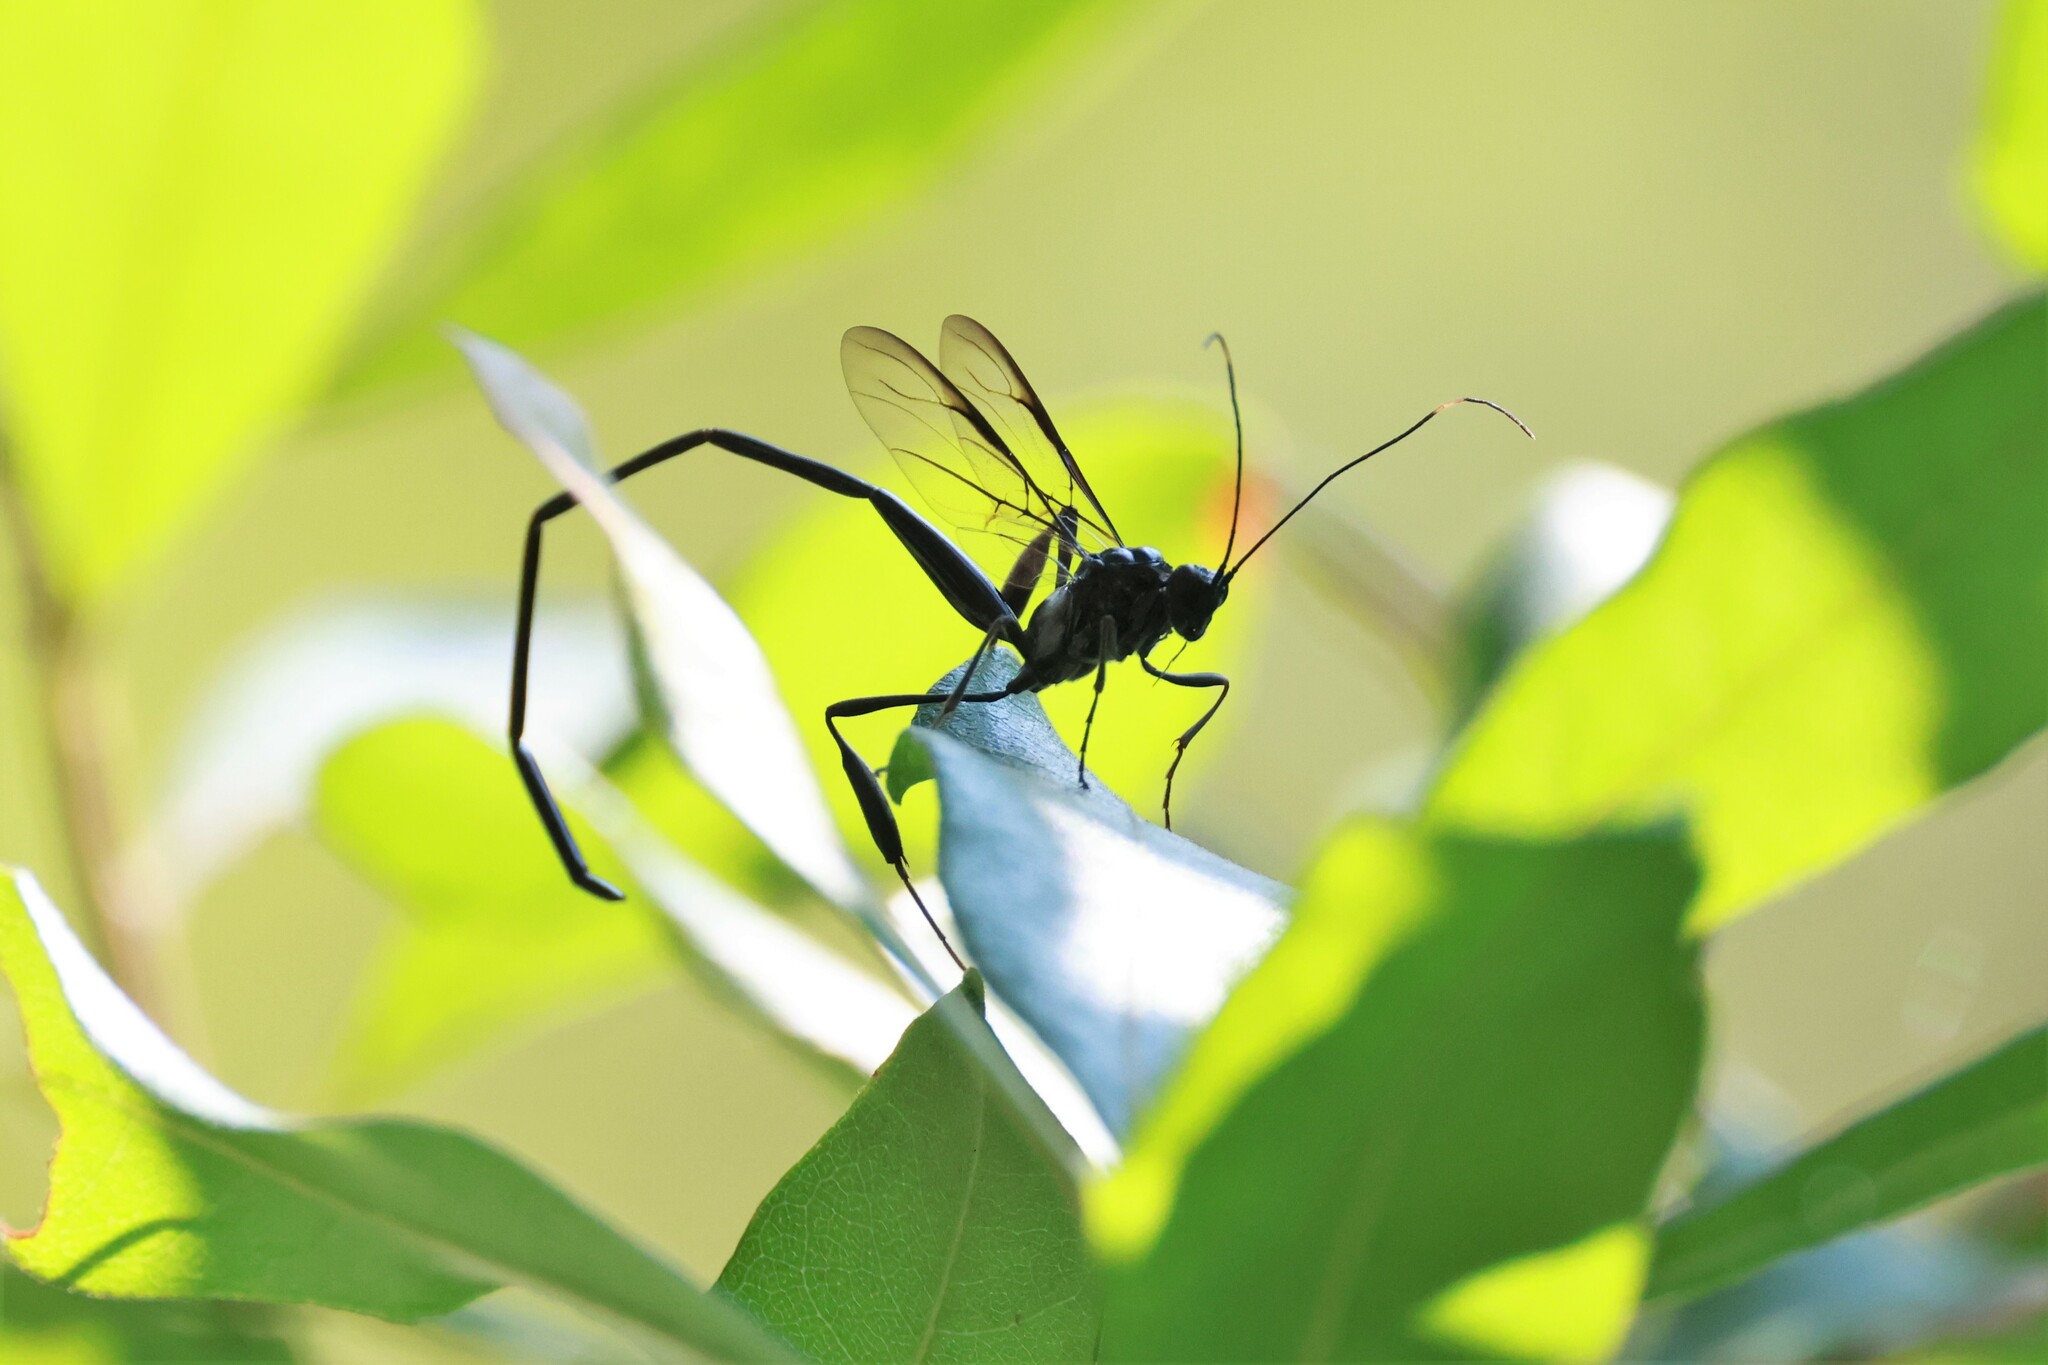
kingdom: Animalia
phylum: Arthropoda
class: Insecta
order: Hymenoptera
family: Pelecinidae
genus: Pelecinus
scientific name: Pelecinus polyturator
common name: American pelecinid wasp
